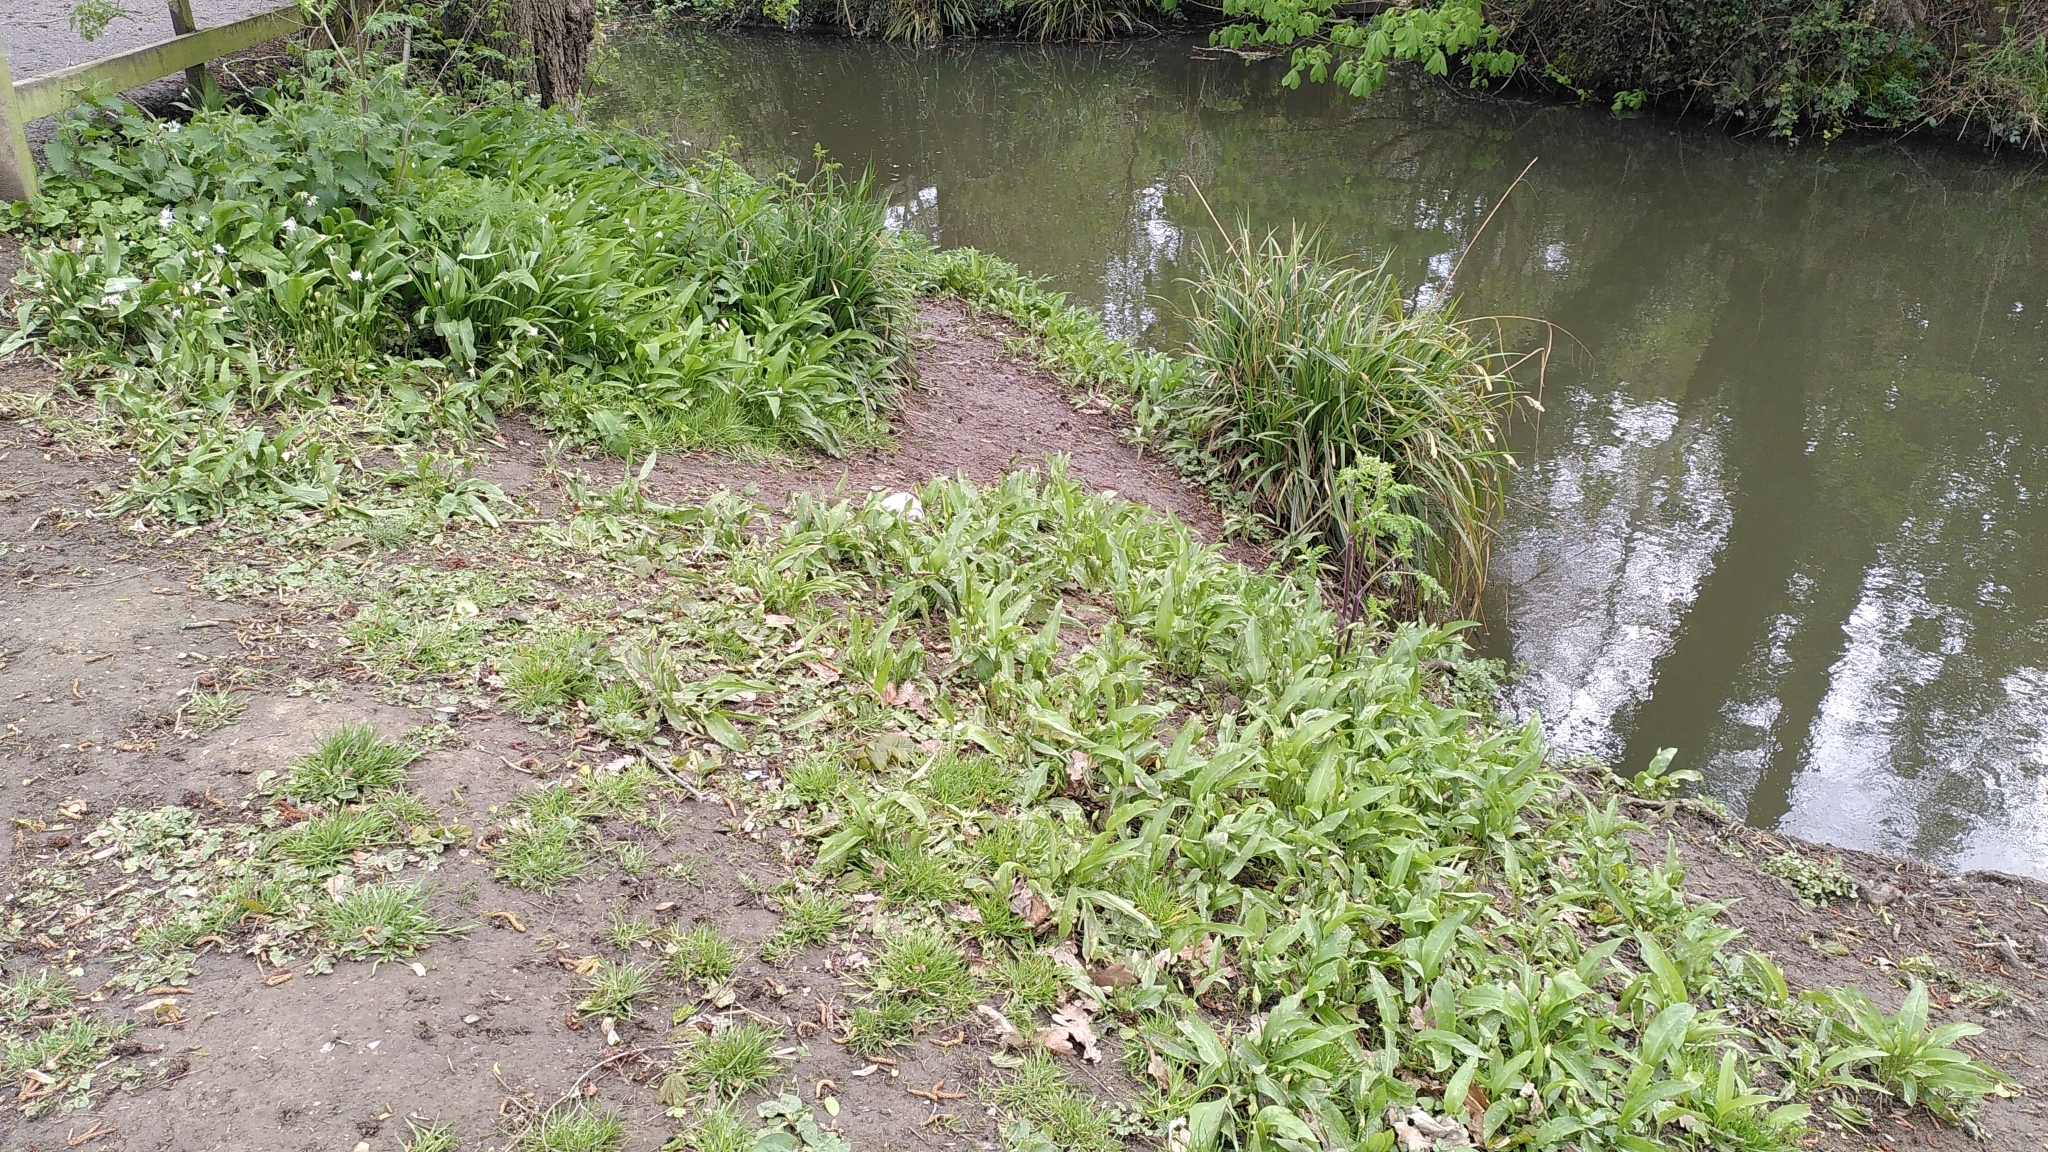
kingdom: Plantae
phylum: Tracheophyta
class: Liliopsida
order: Asparagales
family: Amaryllidaceae
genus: Allium
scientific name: Allium ursinum
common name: Ramsons
